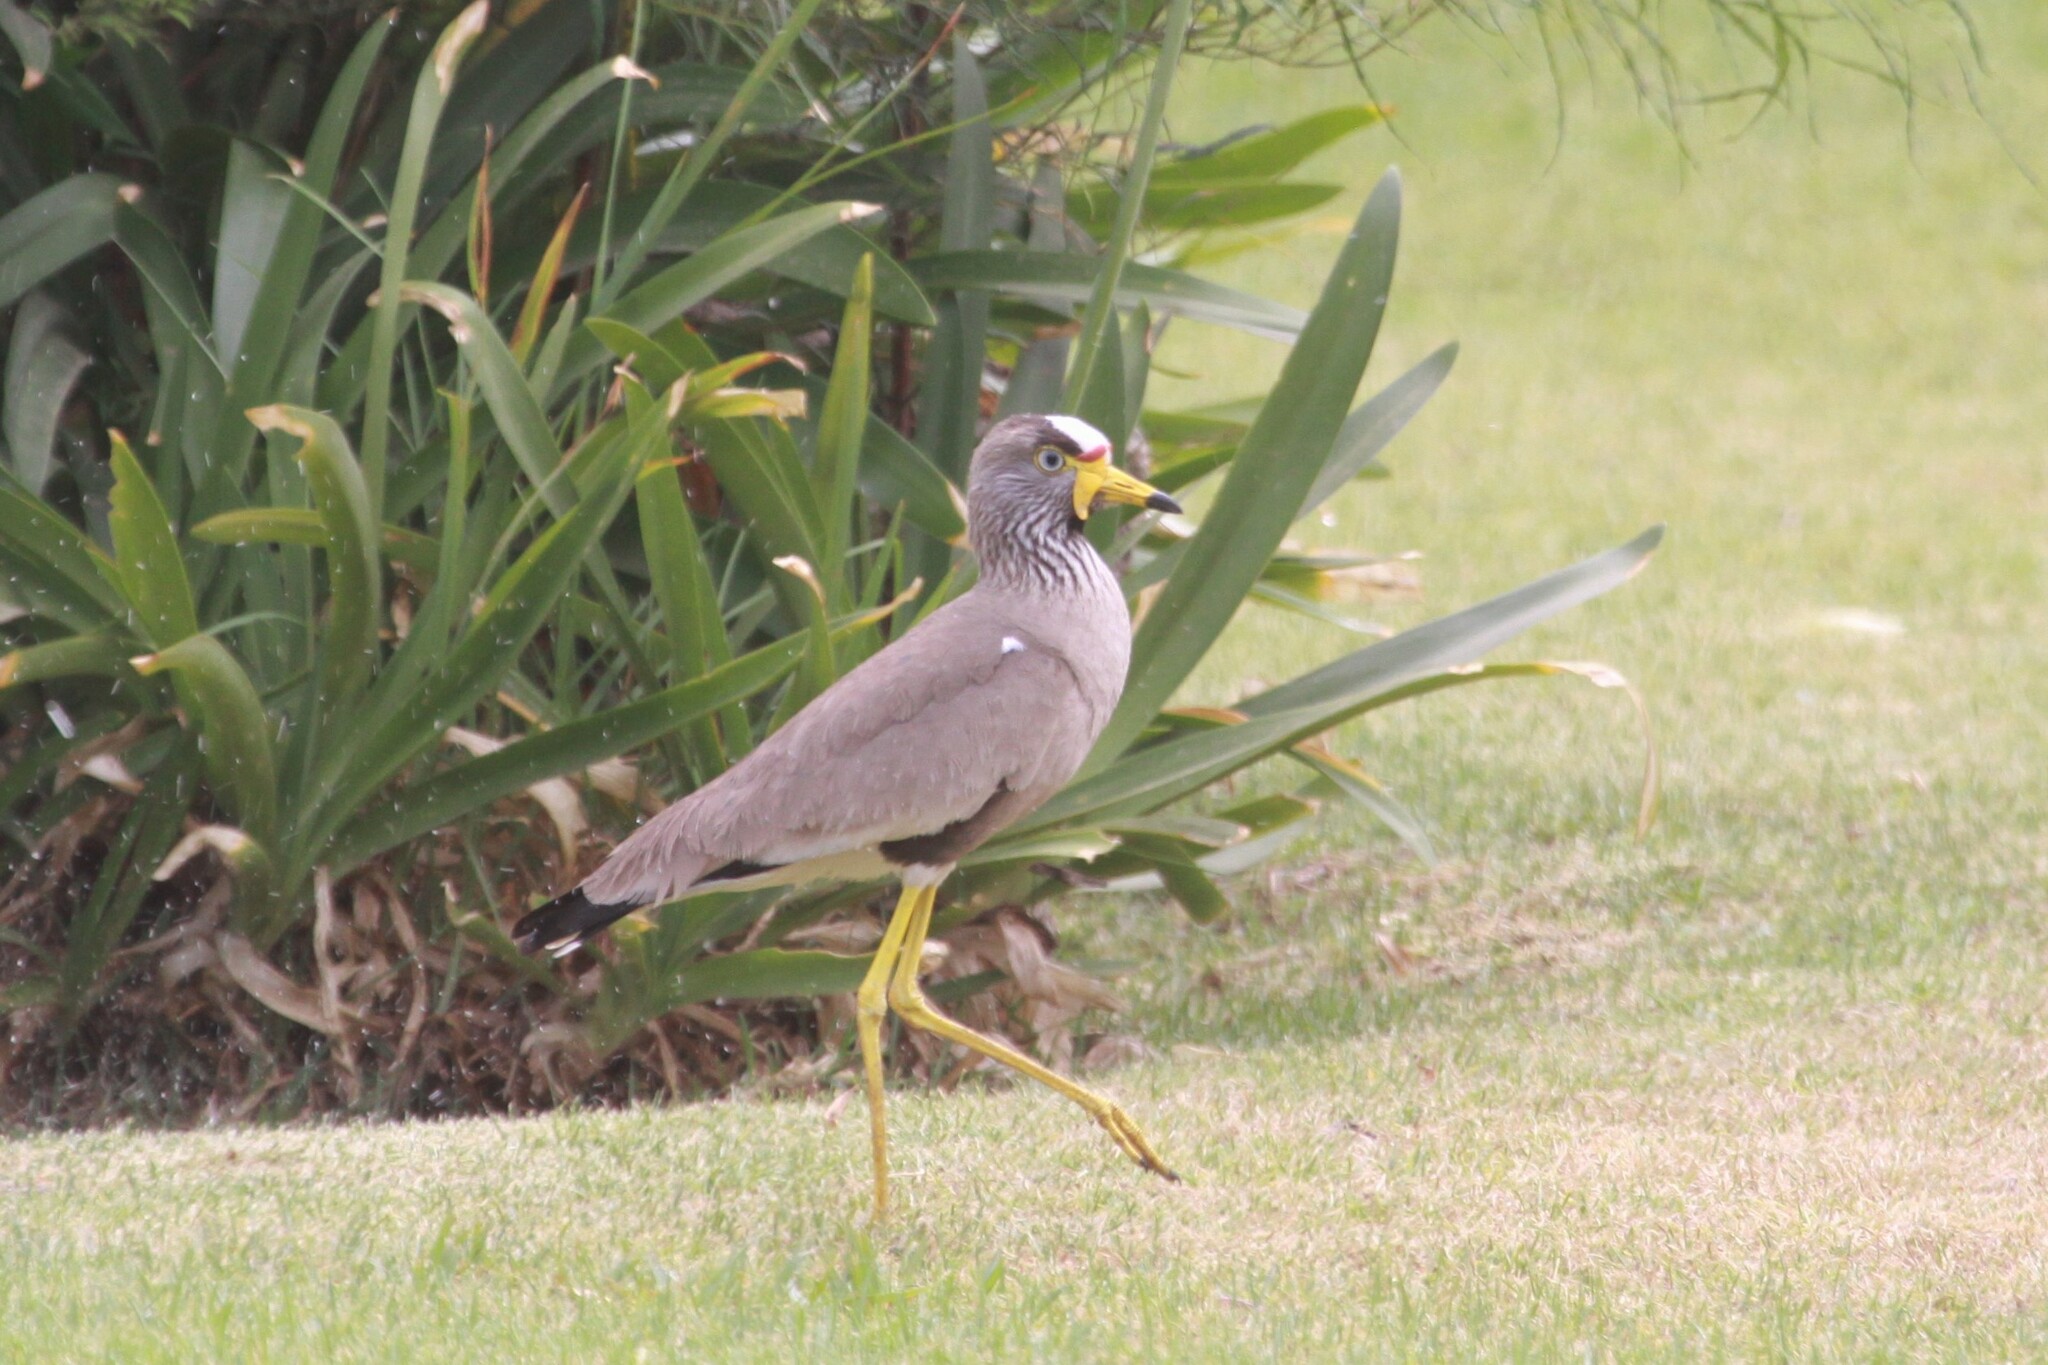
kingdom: Animalia
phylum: Chordata
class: Aves
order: Charadriiformes
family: Charadriidae
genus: Vanellus
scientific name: Vanellus senegallus
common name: African wattled lapwing
